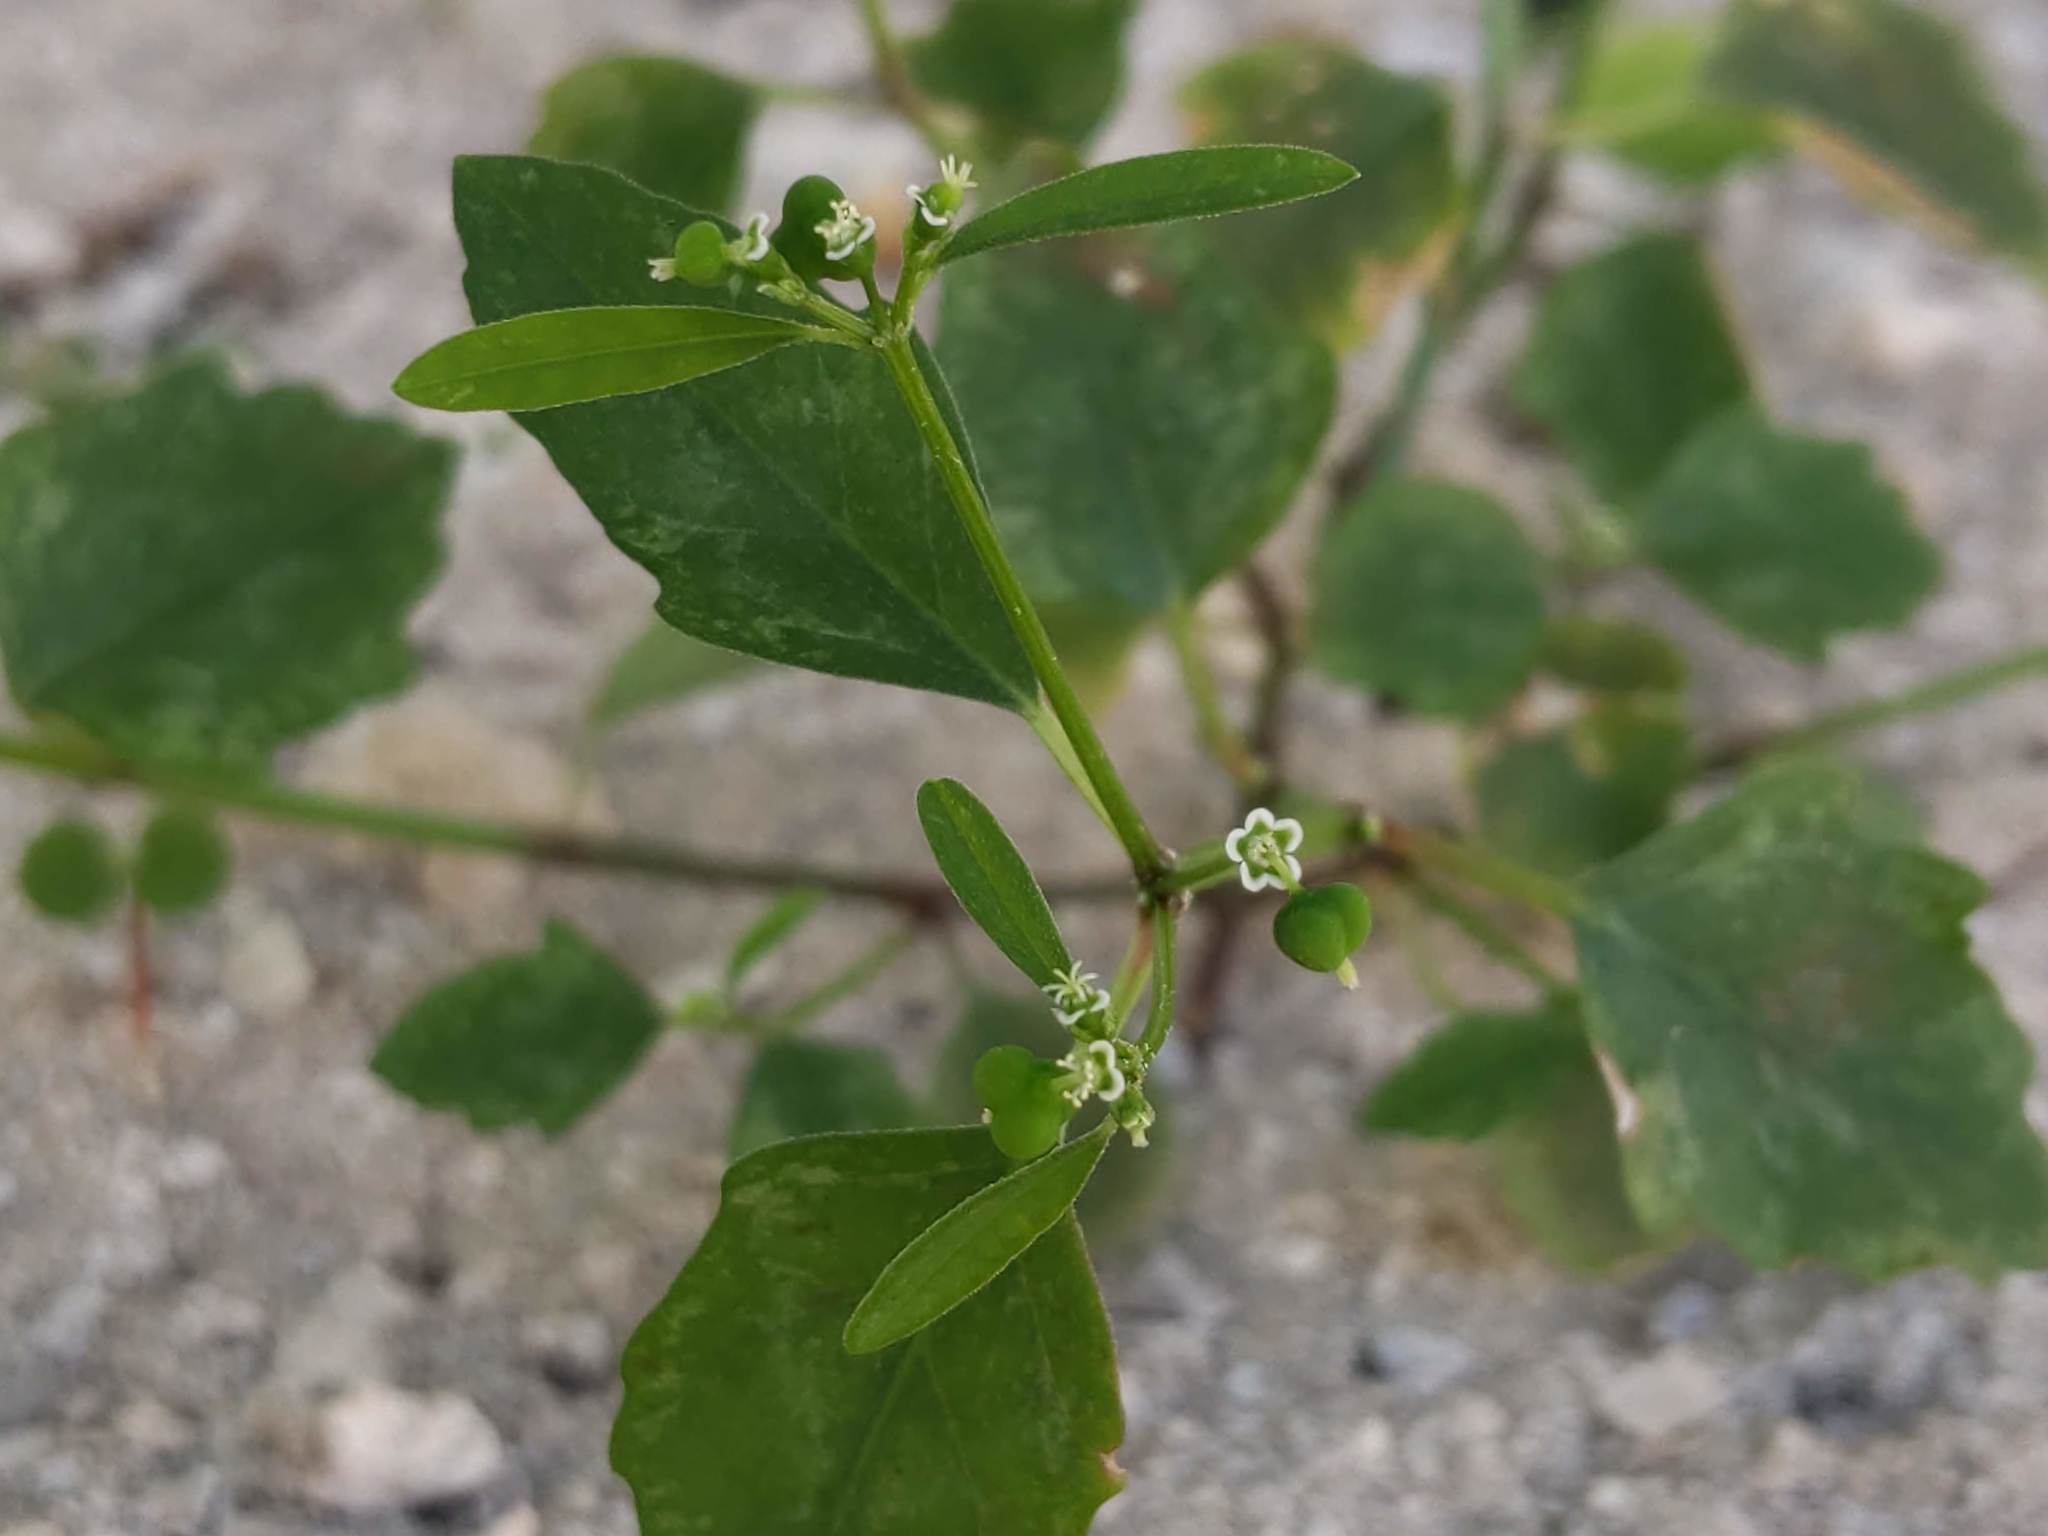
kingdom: Plantae
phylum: Tracheophyta
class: Magnoliopsida
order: Malpighiales
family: Euphorbiaceae
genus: Euphorbia
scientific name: Euphorbia graminea
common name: Grassleaf spurge
